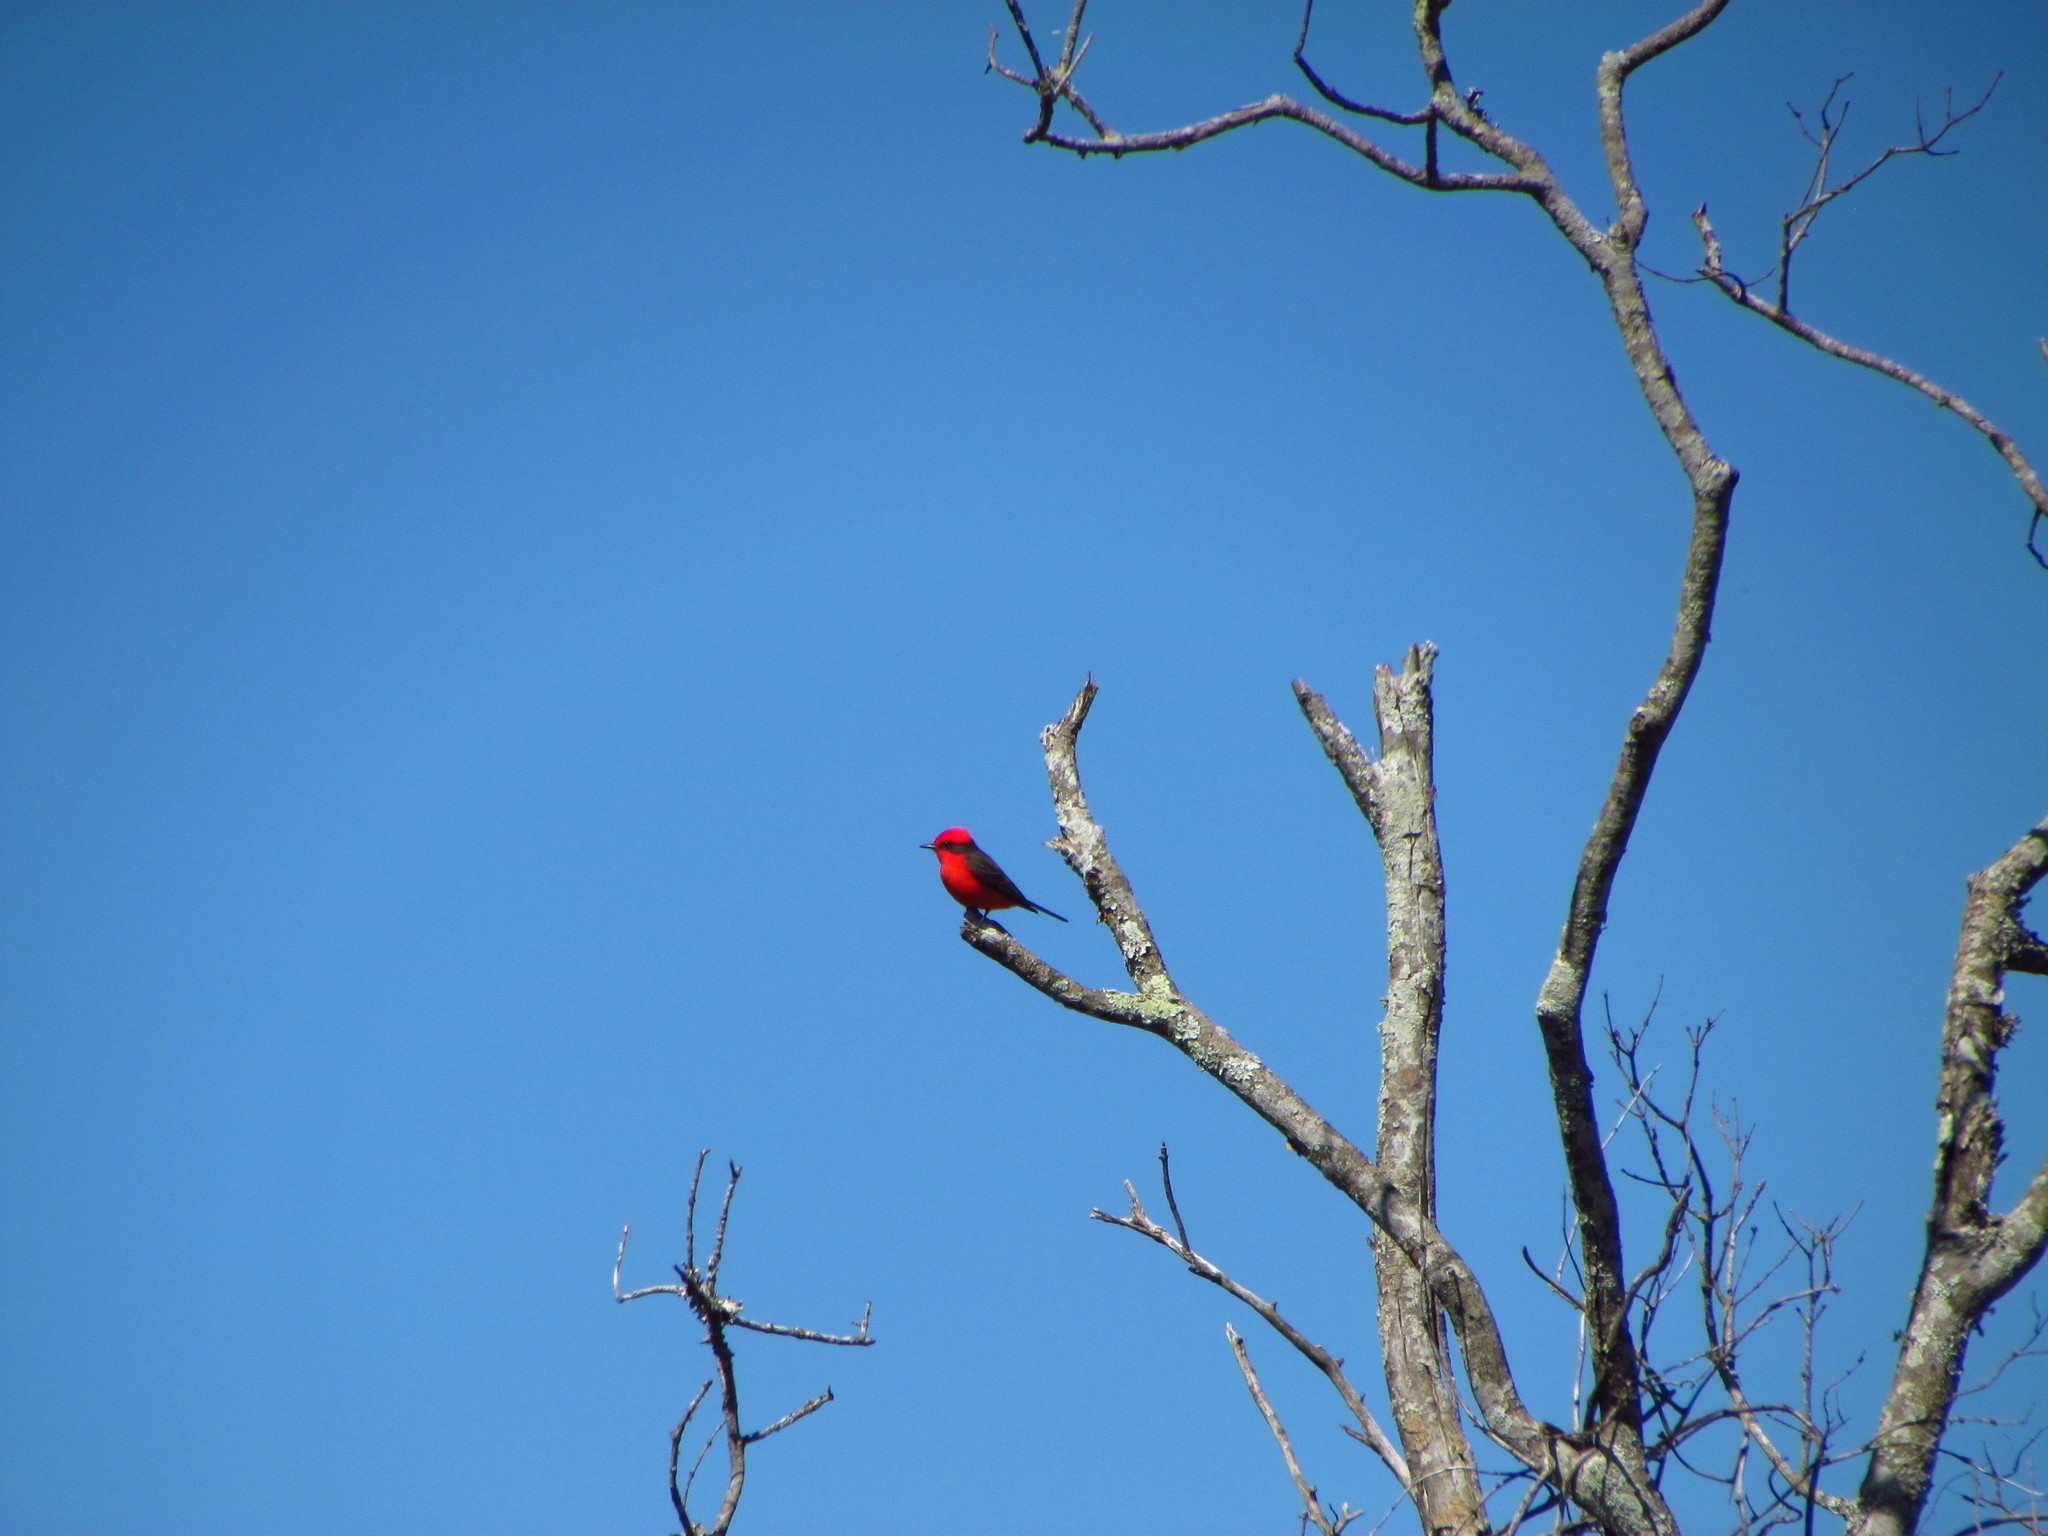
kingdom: Animalia
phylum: Chordata
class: Aves
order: Passeriformes
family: Tyrannidae
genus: Pyrocephalus
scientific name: Pyrocephalus rubinus
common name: Vermilion flycatcher
